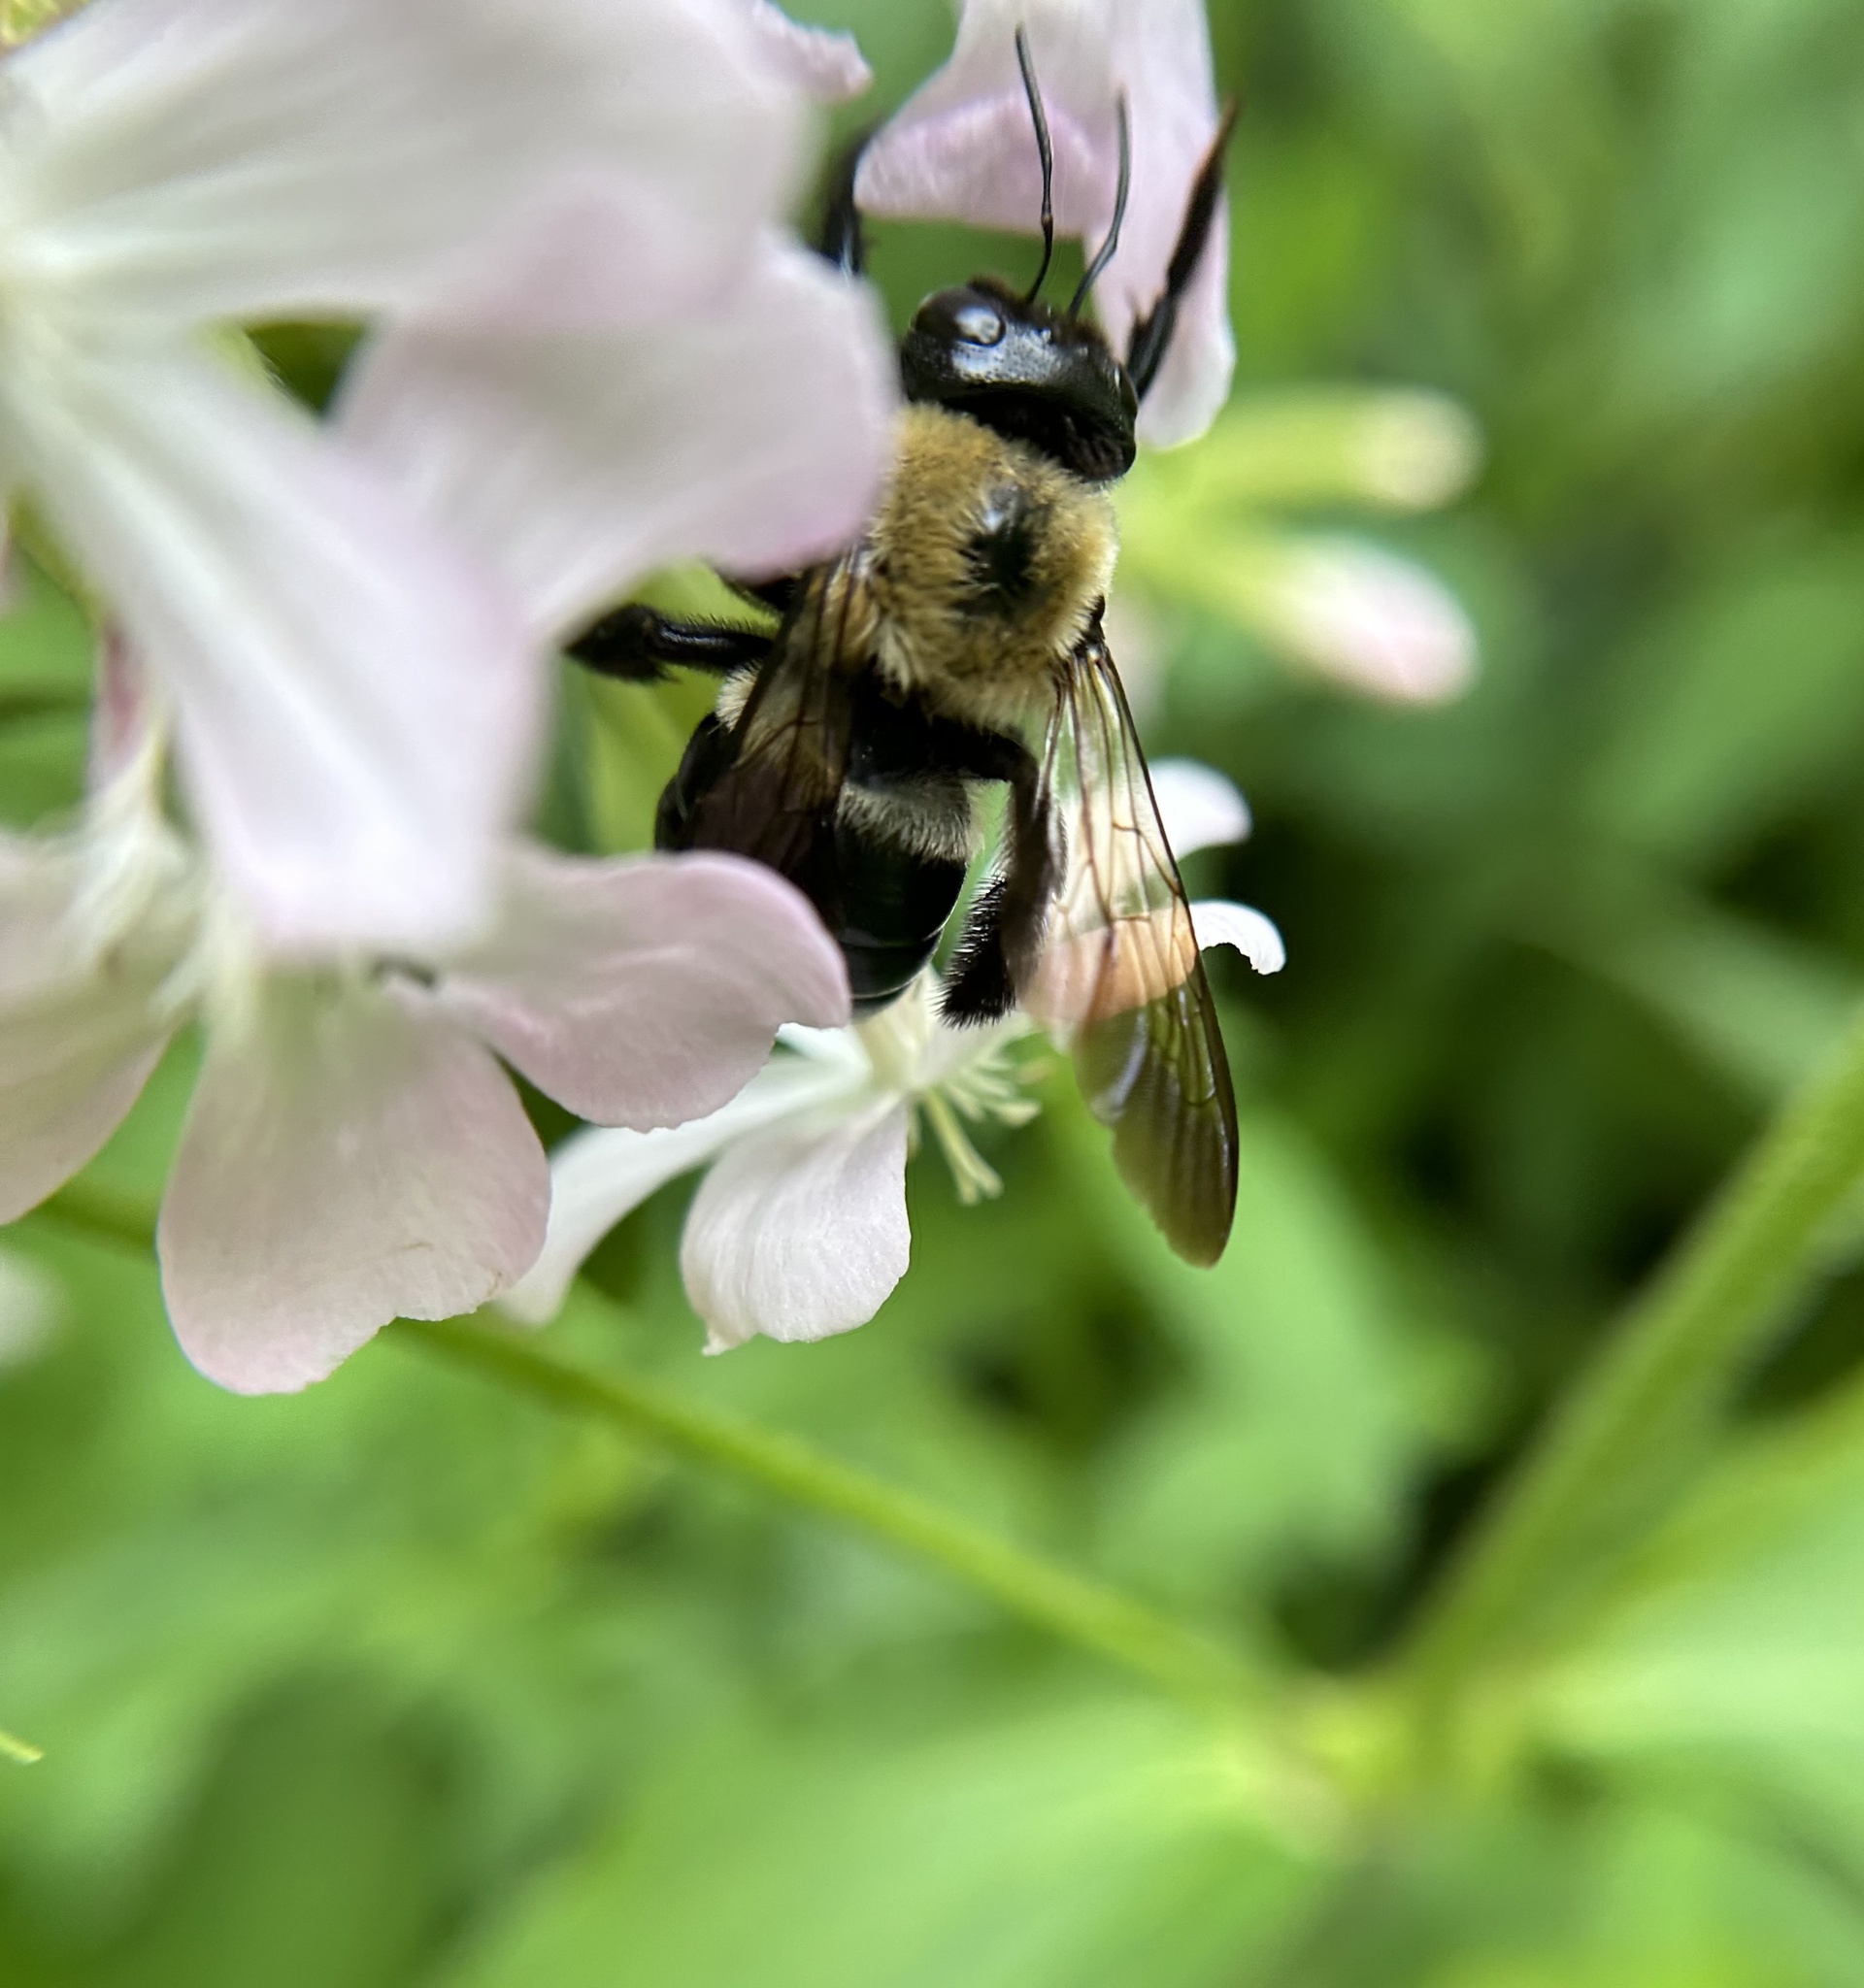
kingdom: Animalia
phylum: Arthropoda
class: Insecta
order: Hymenoptera
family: Apidae
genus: Xylocopa
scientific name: Xylocopa virginica
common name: Carpenter bee
